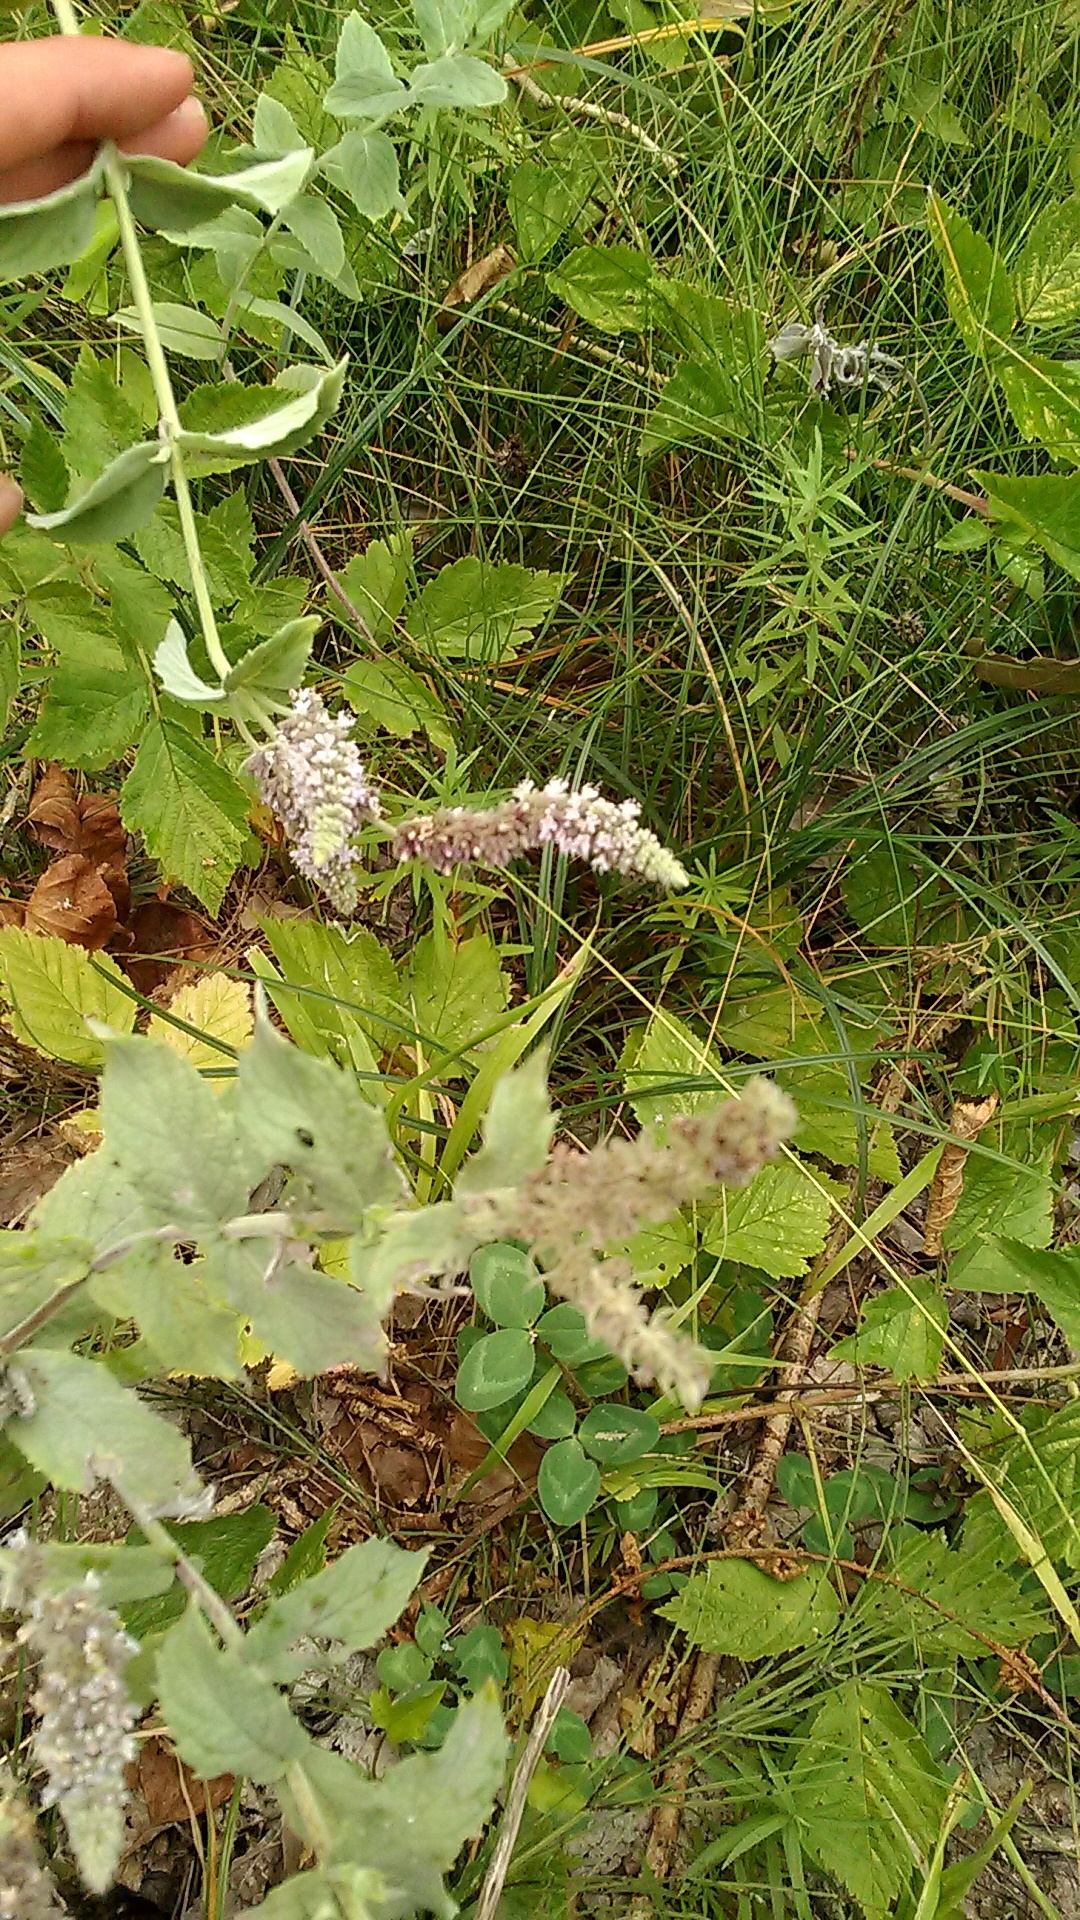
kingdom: Plantae
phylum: Tracheophyta
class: Magnoliopsida
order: Lamiales
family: Lamiaceae
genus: Mentha
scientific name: Mentha longifolia
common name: Horse mint
